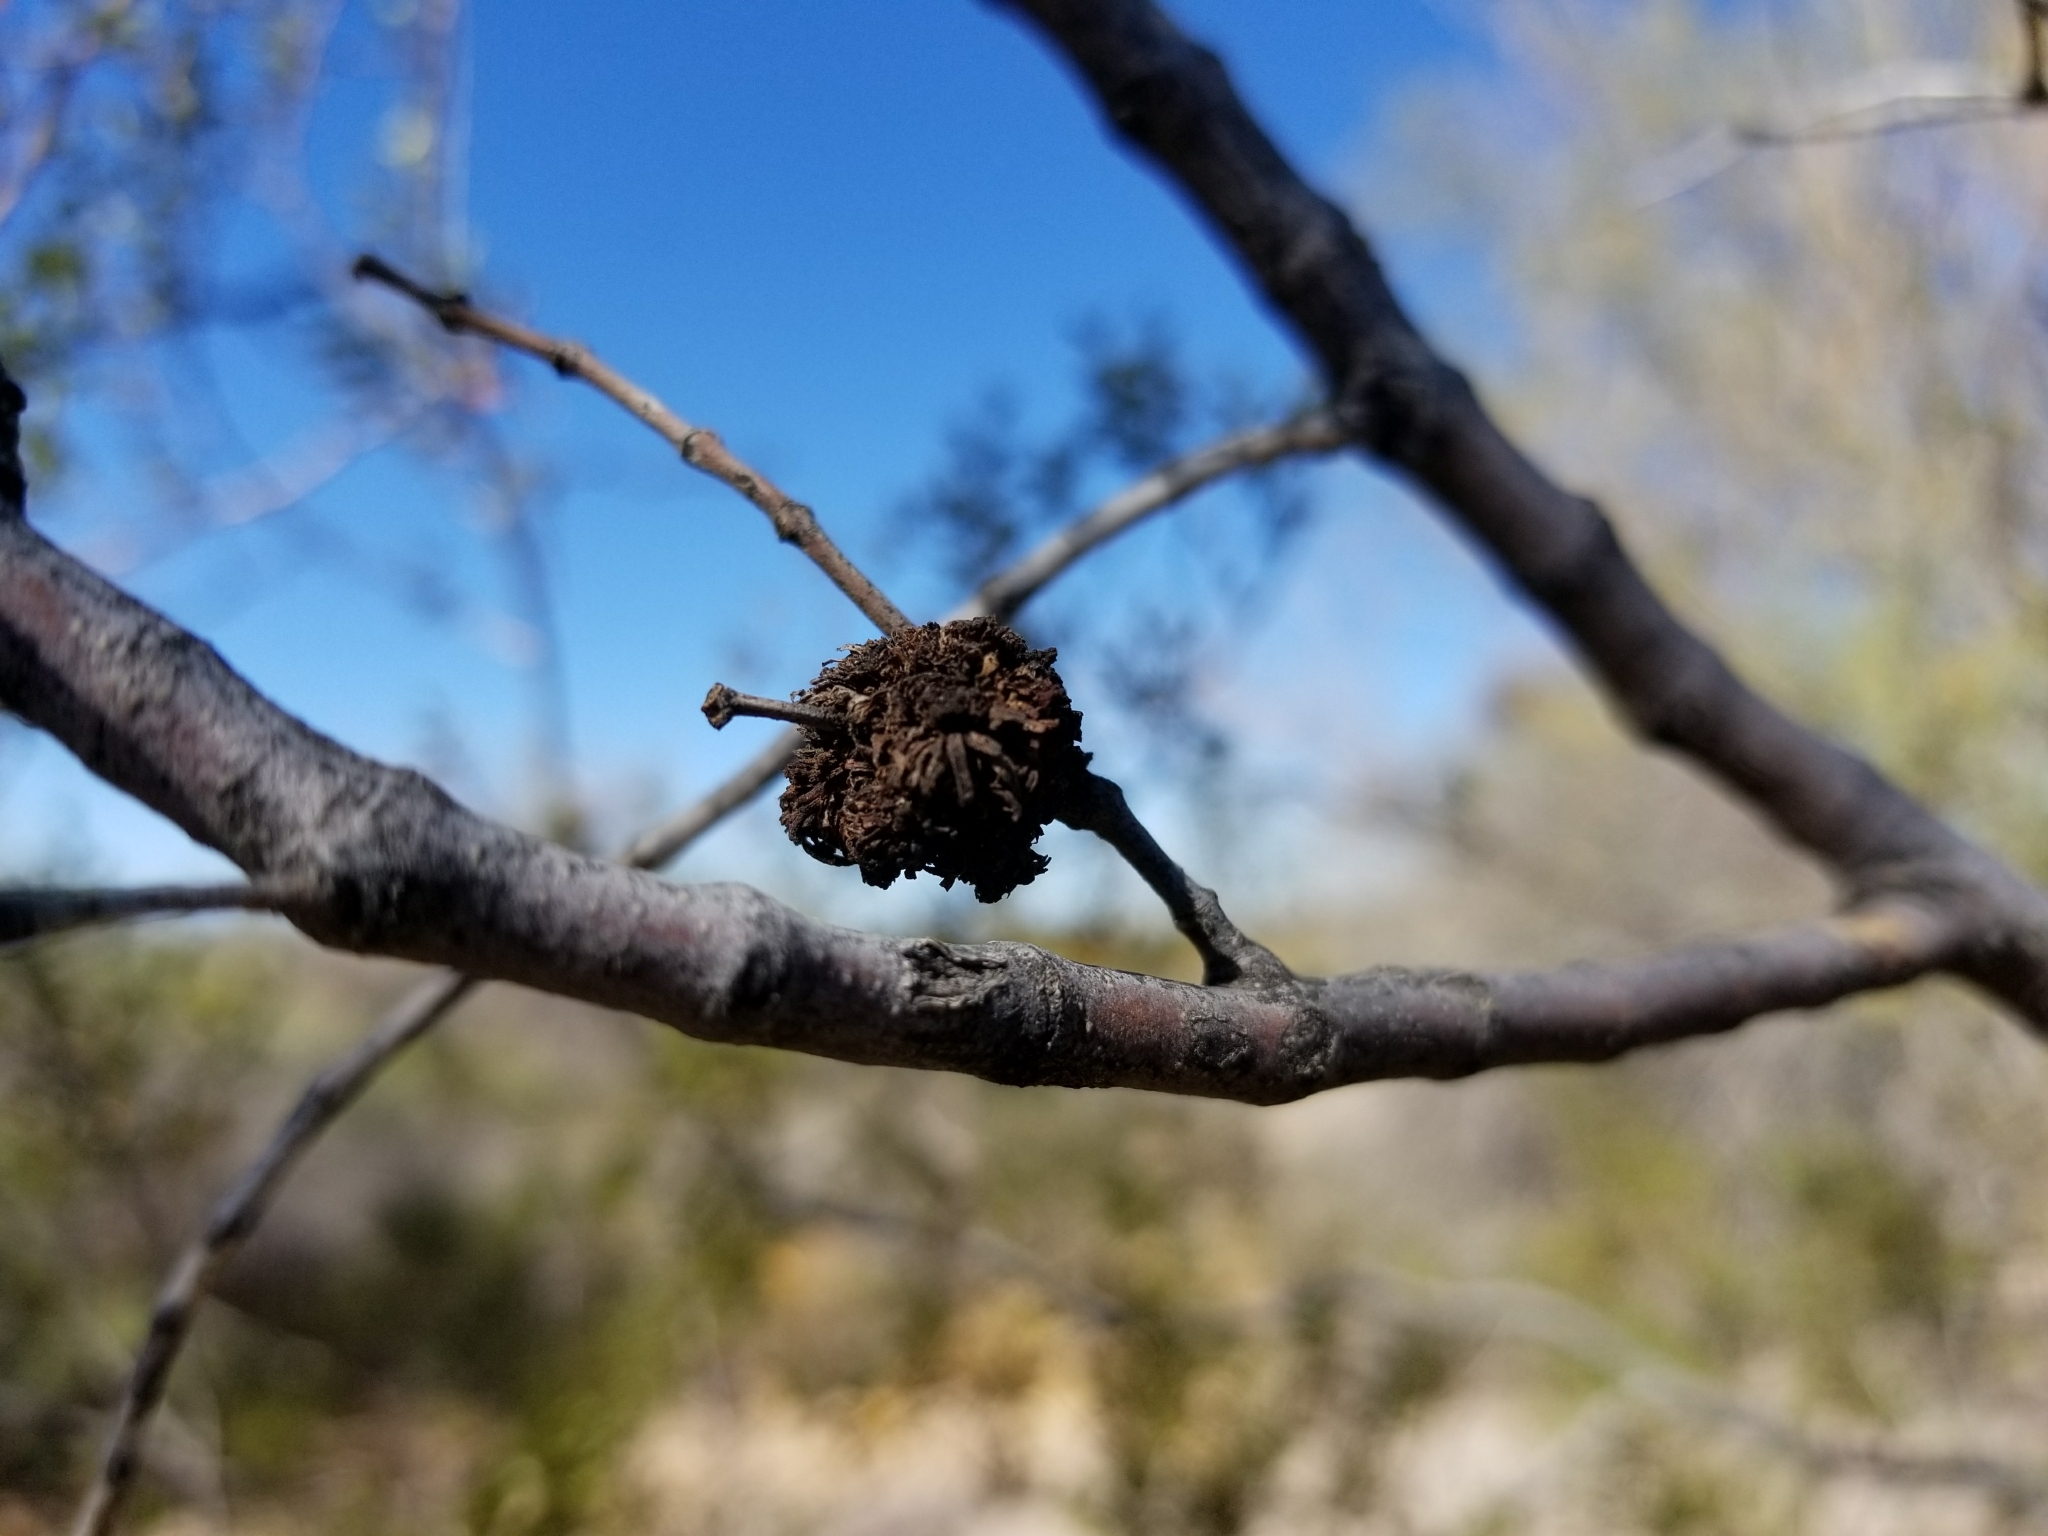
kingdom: Animalia
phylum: Arthropoda
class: Insecta
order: Diptera
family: Cecidomyiidae
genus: Asphondylia
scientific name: Asphondylia auripila
